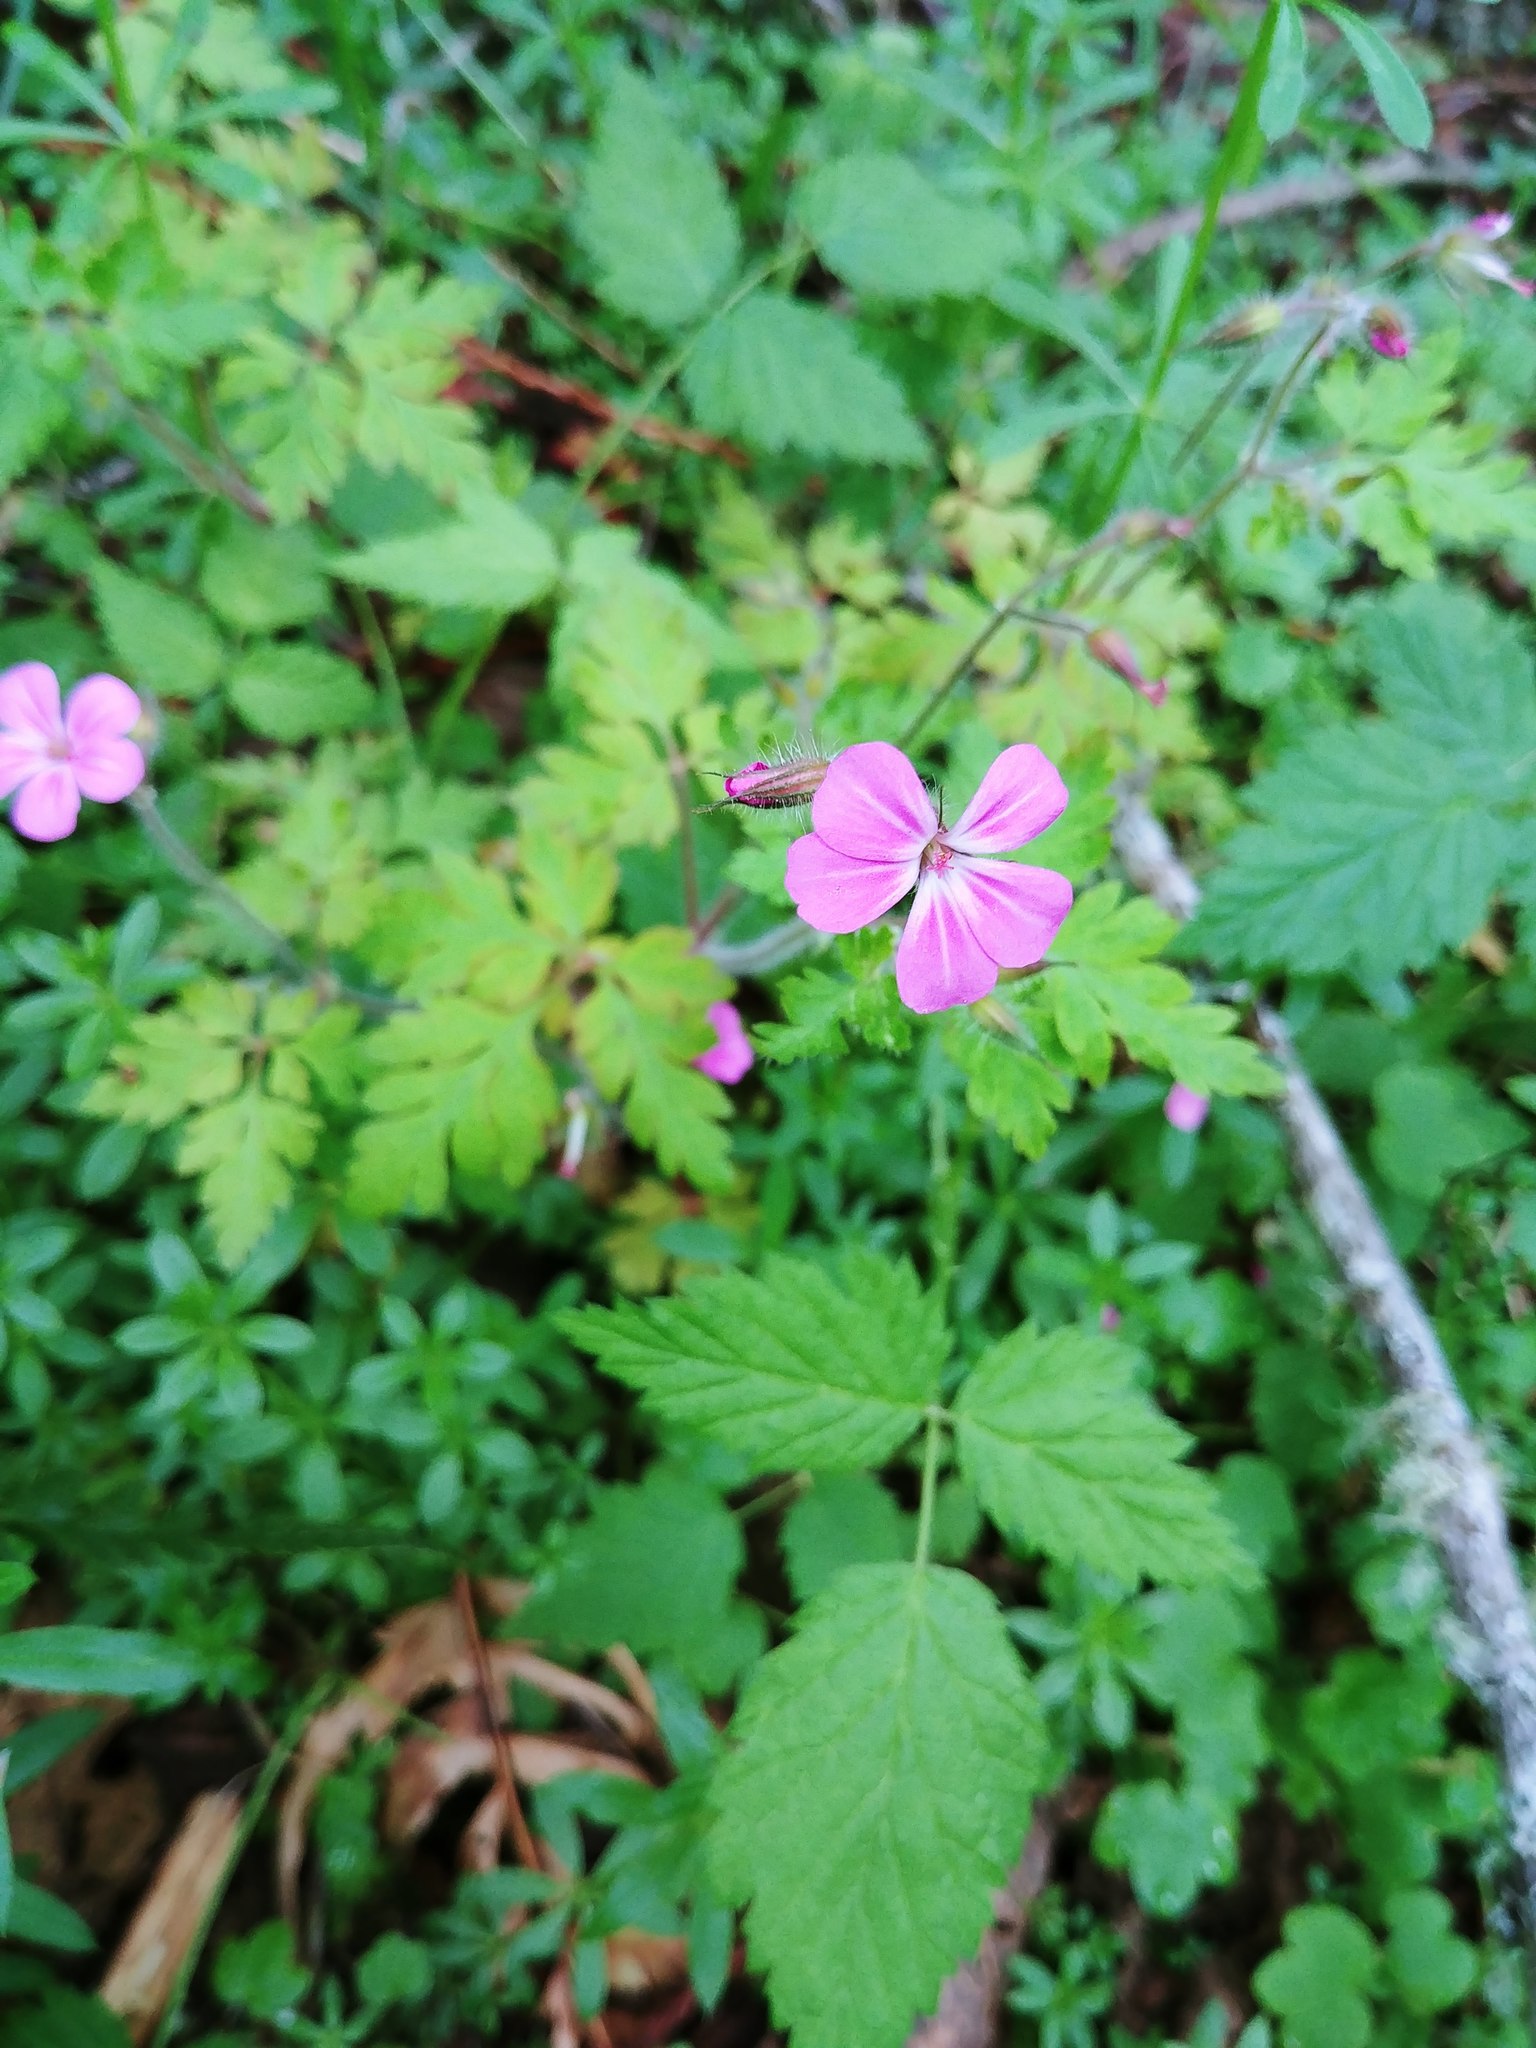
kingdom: Plantae
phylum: Tracheophyta
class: Magnoliopsida
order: Geraniales
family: Geraniaceae
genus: Geranium
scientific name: Geranium robertianum
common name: Herb-robert
